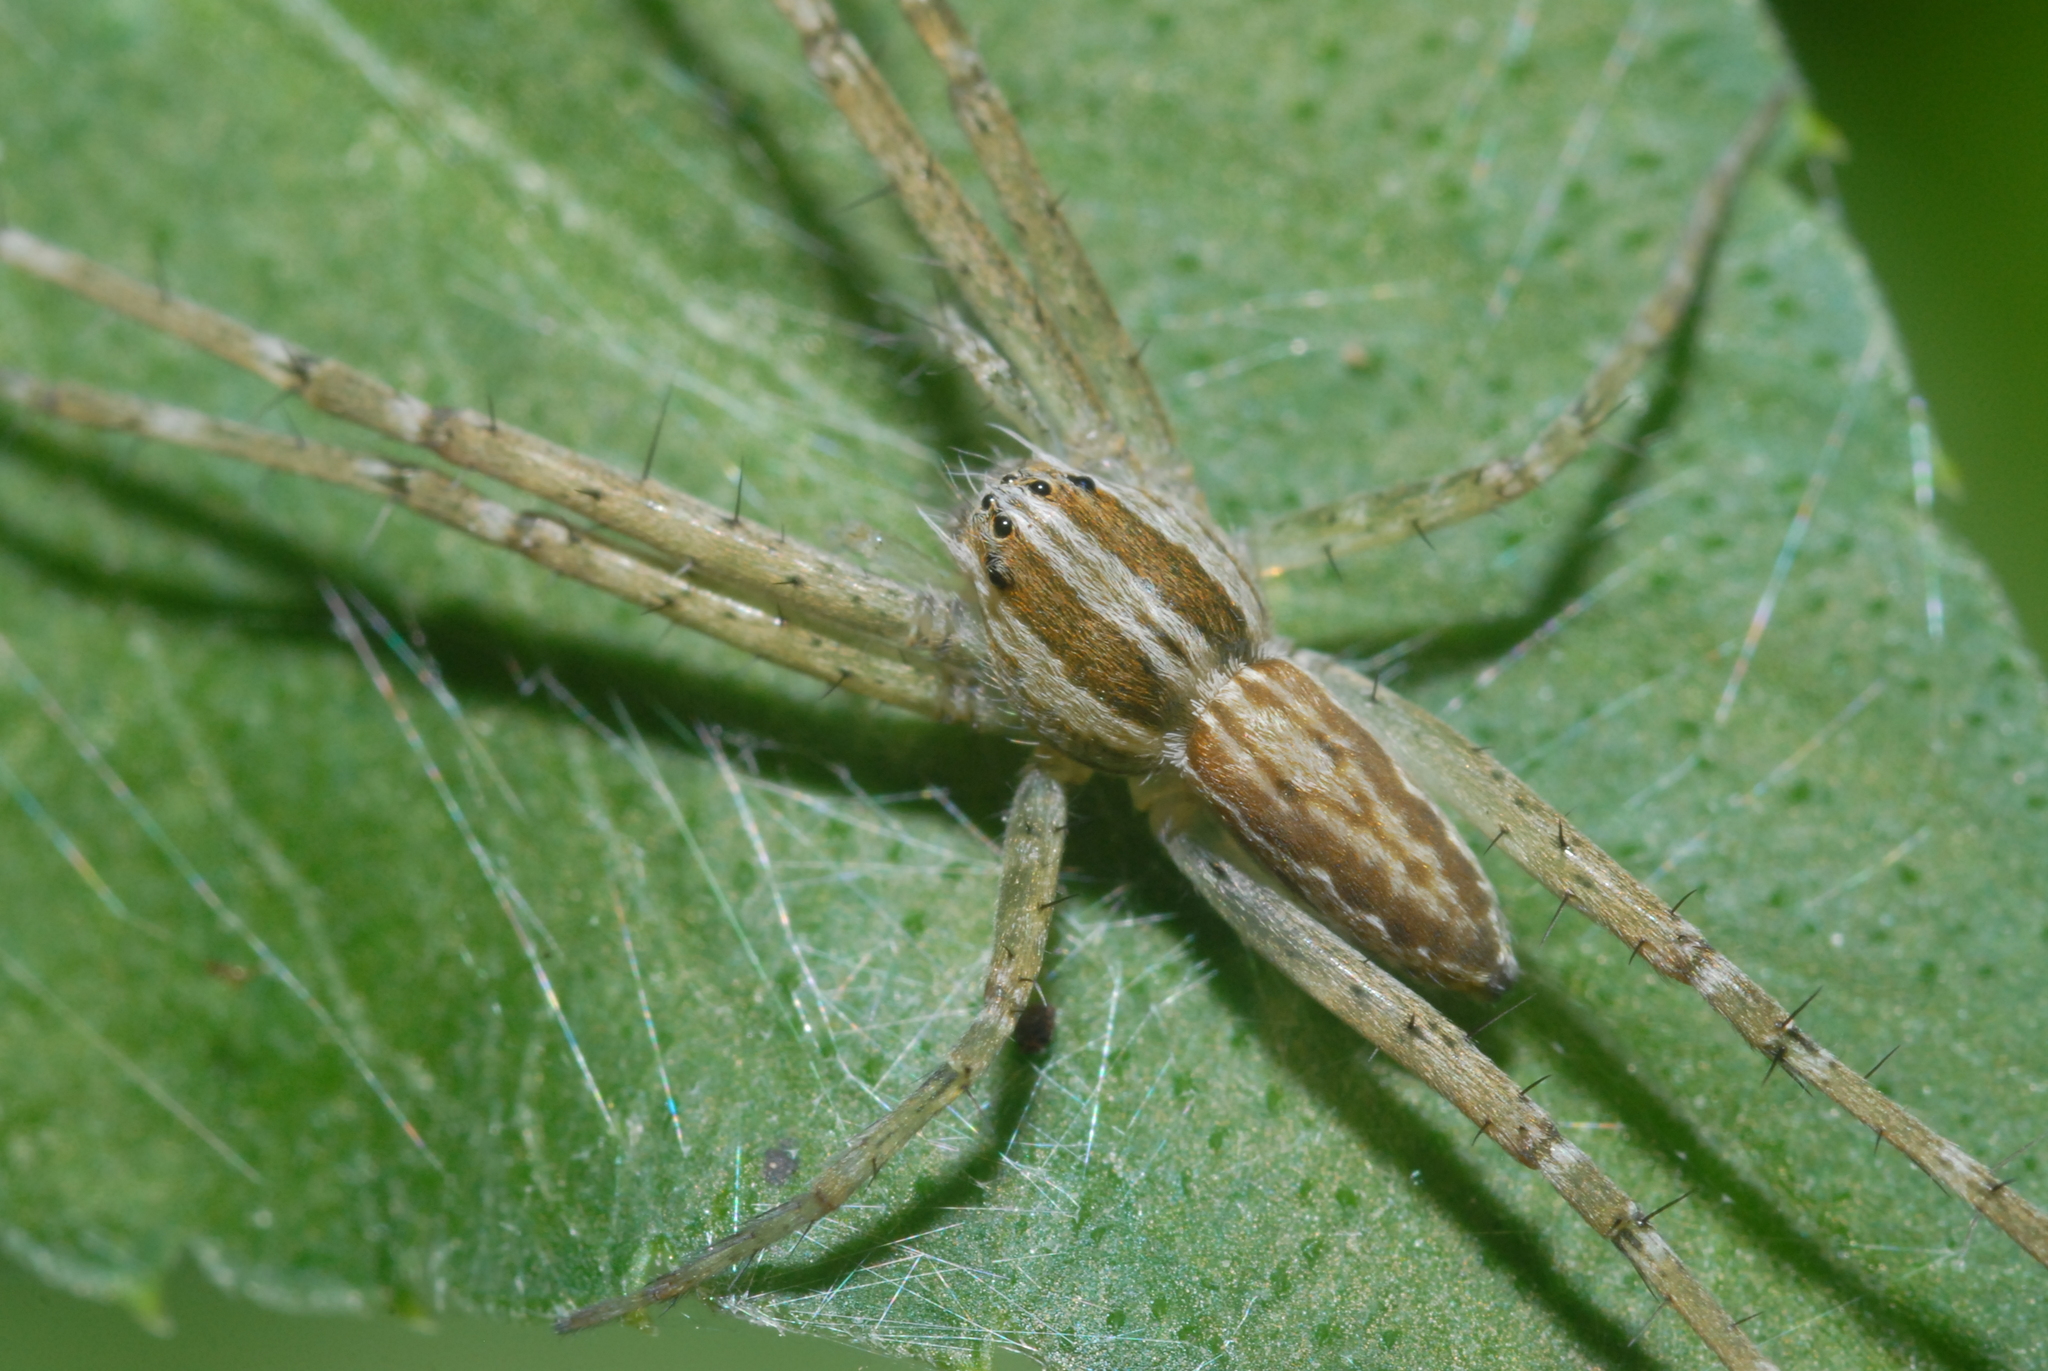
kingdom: Animalia
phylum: Arthropoda
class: Arachnida
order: Araneae
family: Pisauridae
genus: Hygropoda
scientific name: Hygropoda higenaga
